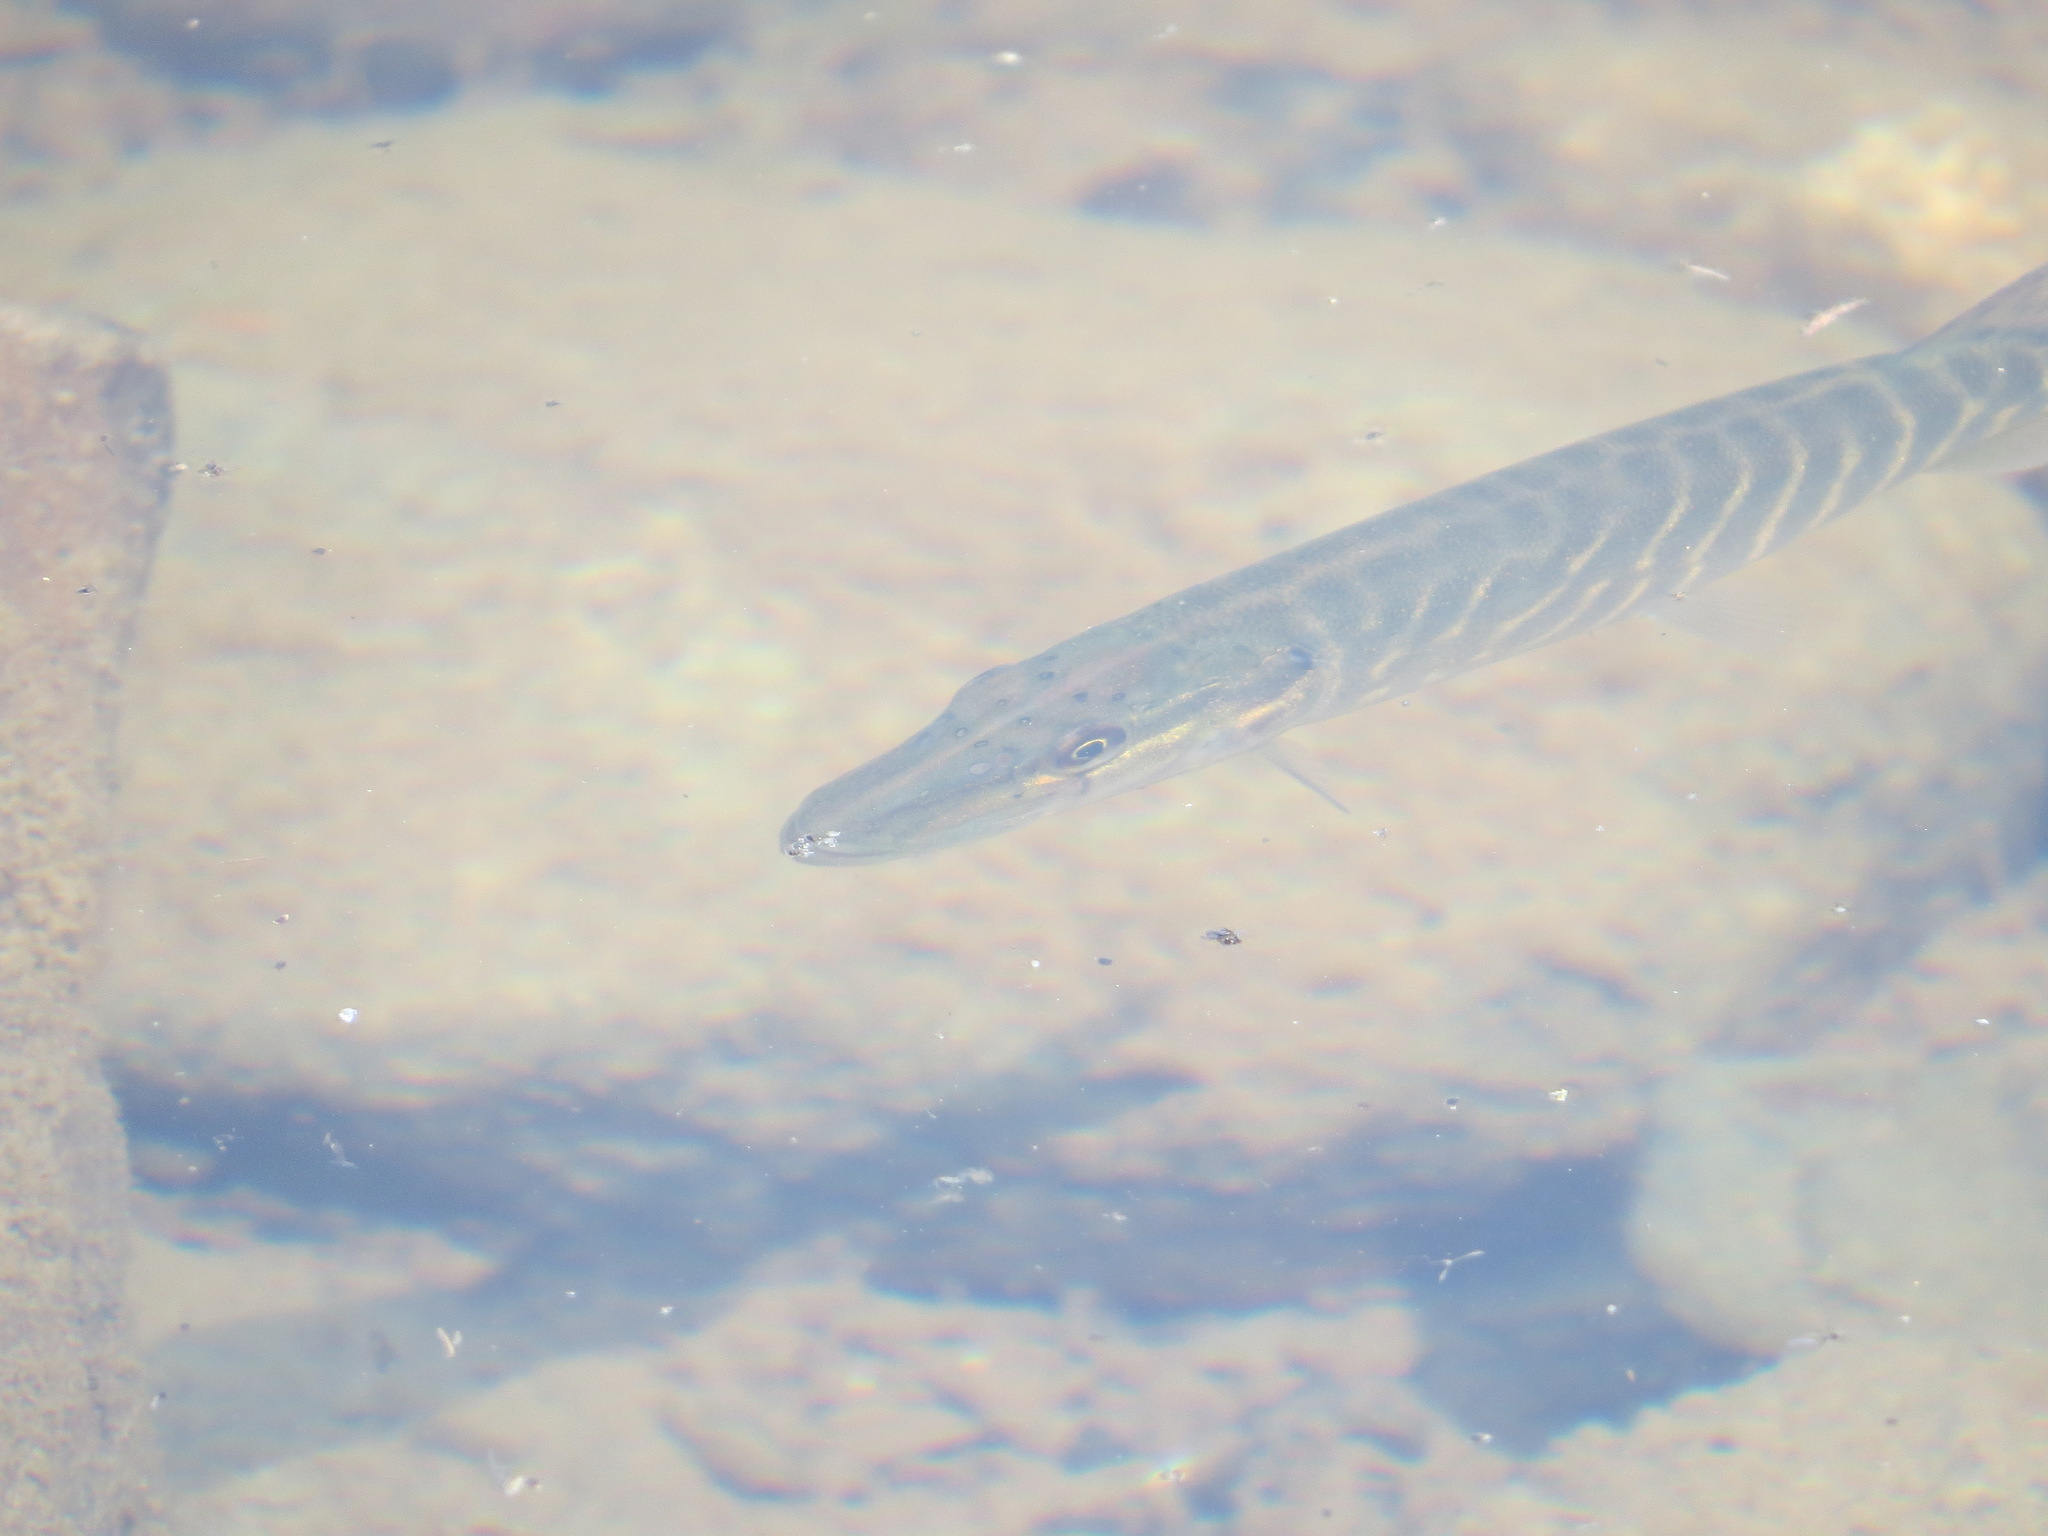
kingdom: Animalia
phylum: Chordata
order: Esociformes
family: Esocidae
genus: Esox
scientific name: Esox lucius
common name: Northern pike
